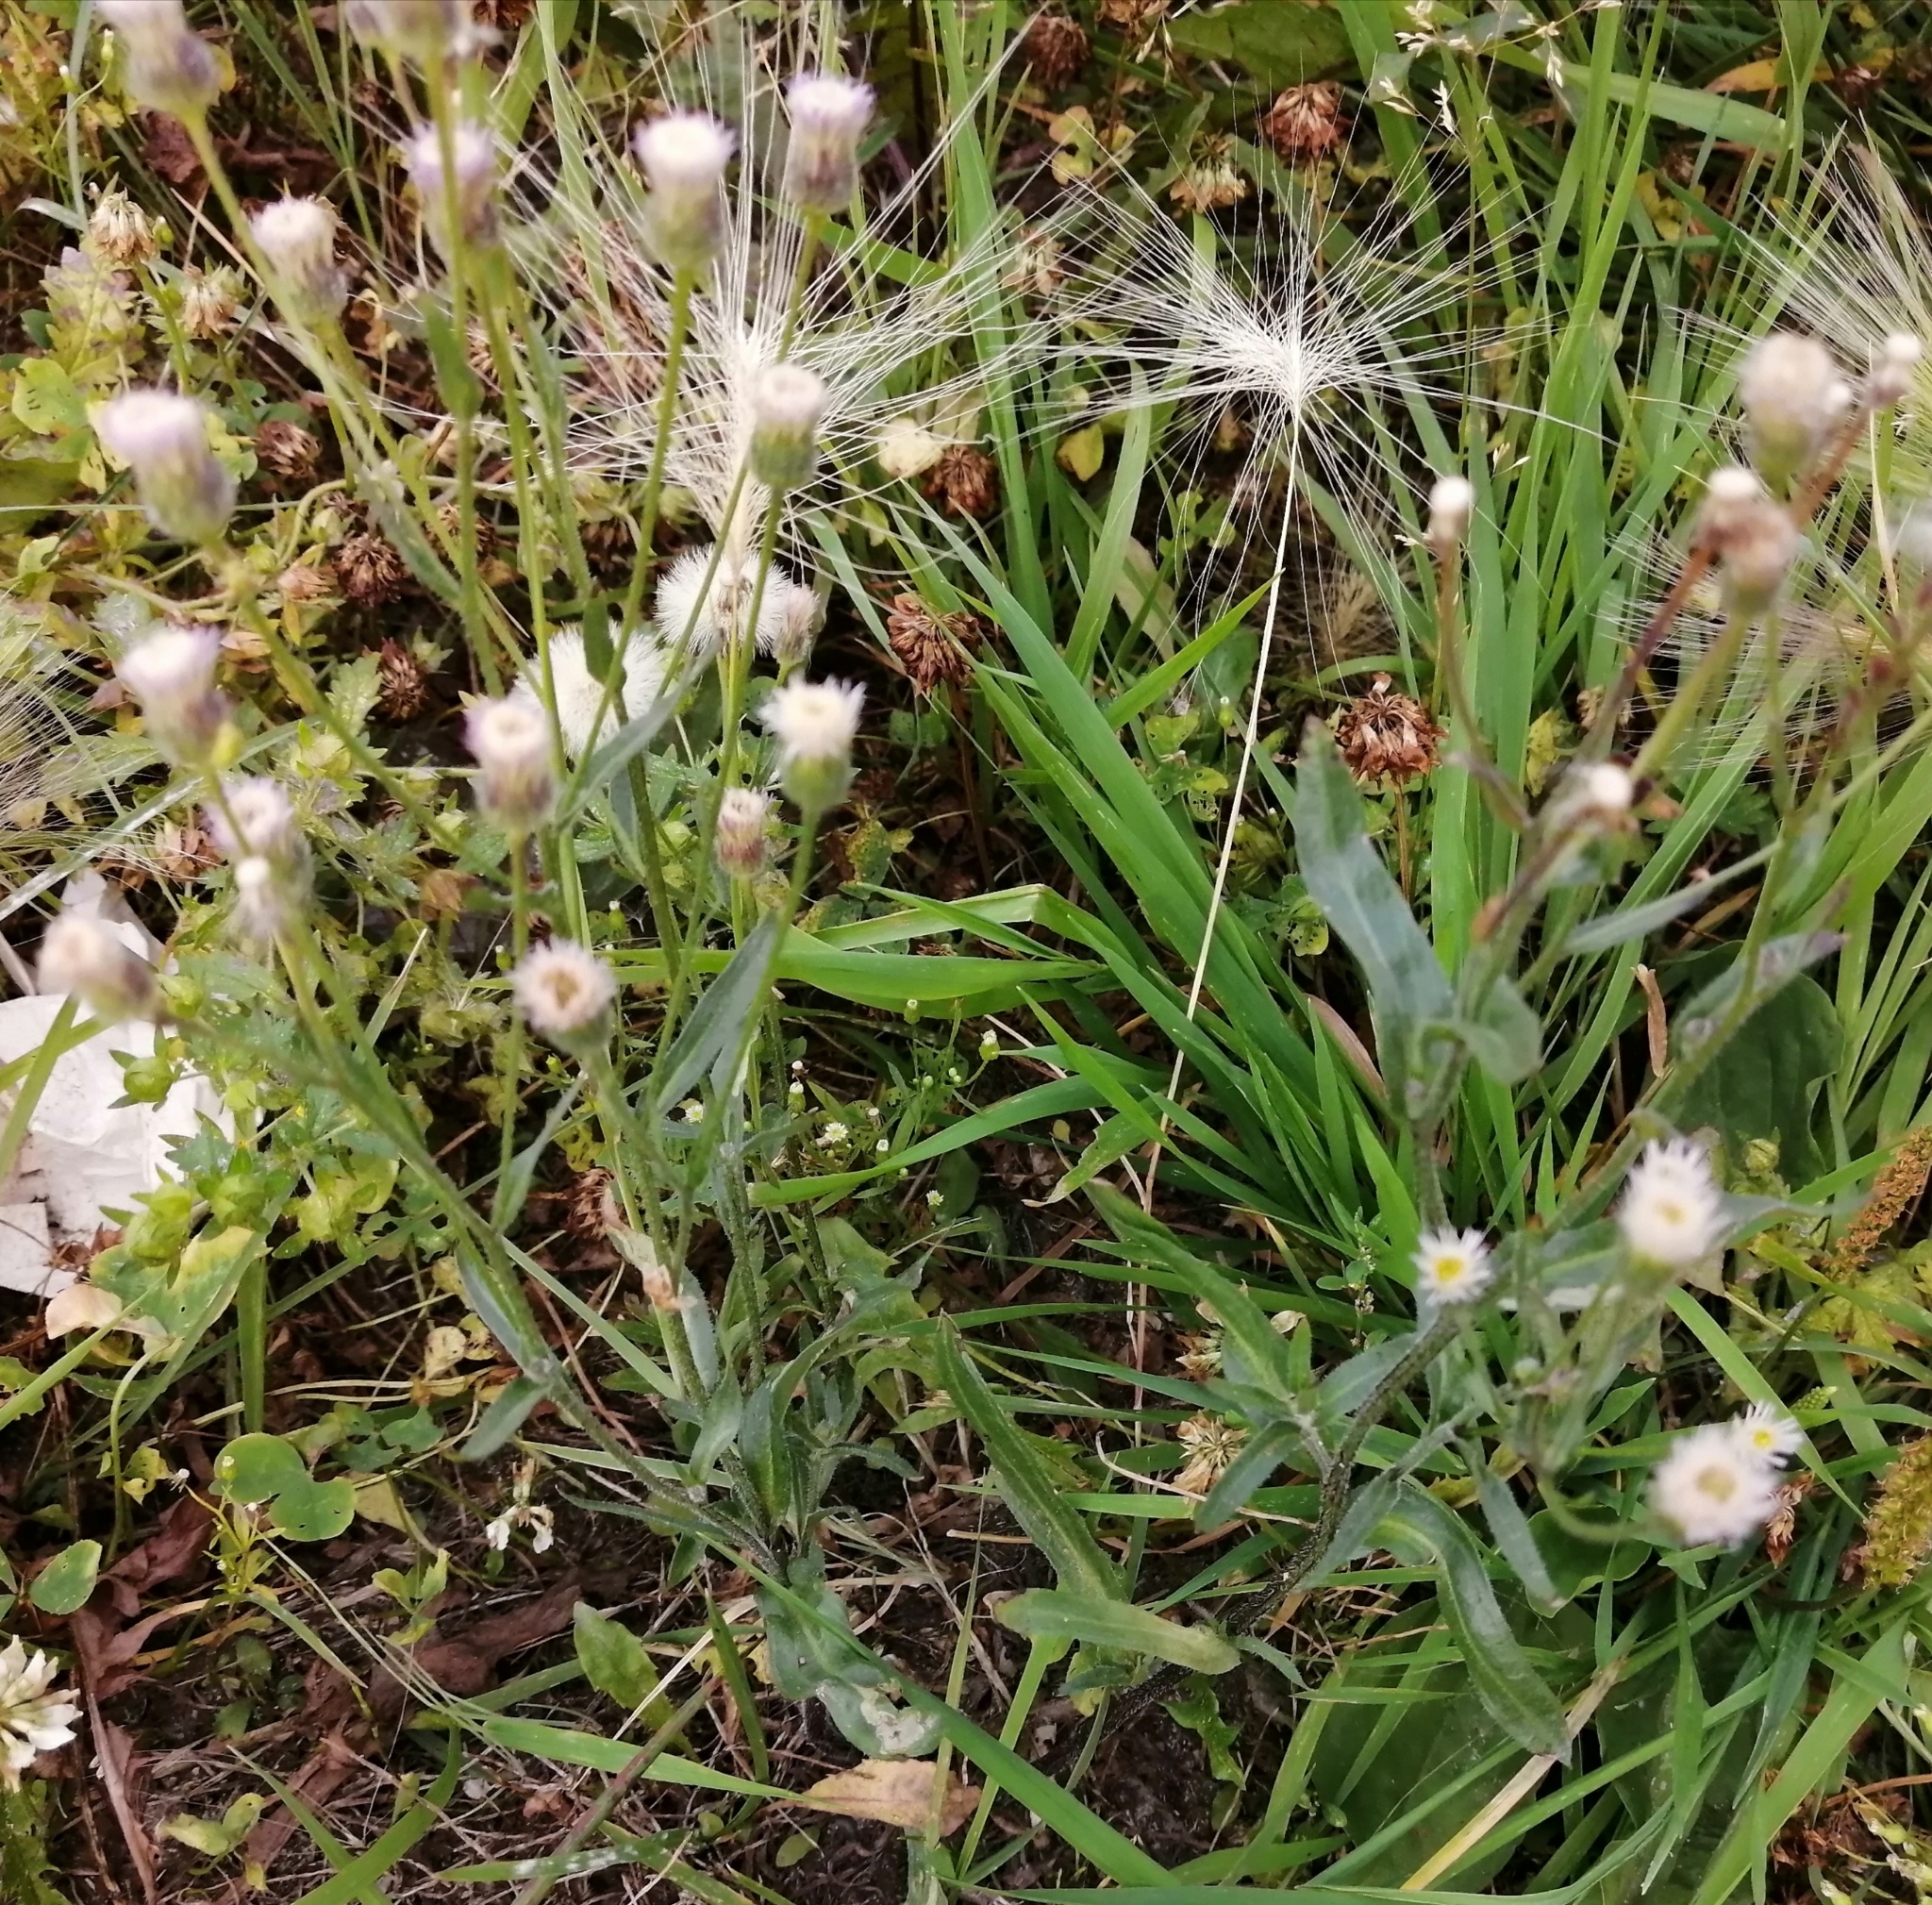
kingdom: Plantae
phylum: Tracheophyta
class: Magnoliopsida
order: Asterales
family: Asteraceae
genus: Erigeron
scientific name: Erigeron acris
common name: Blue fleabane
